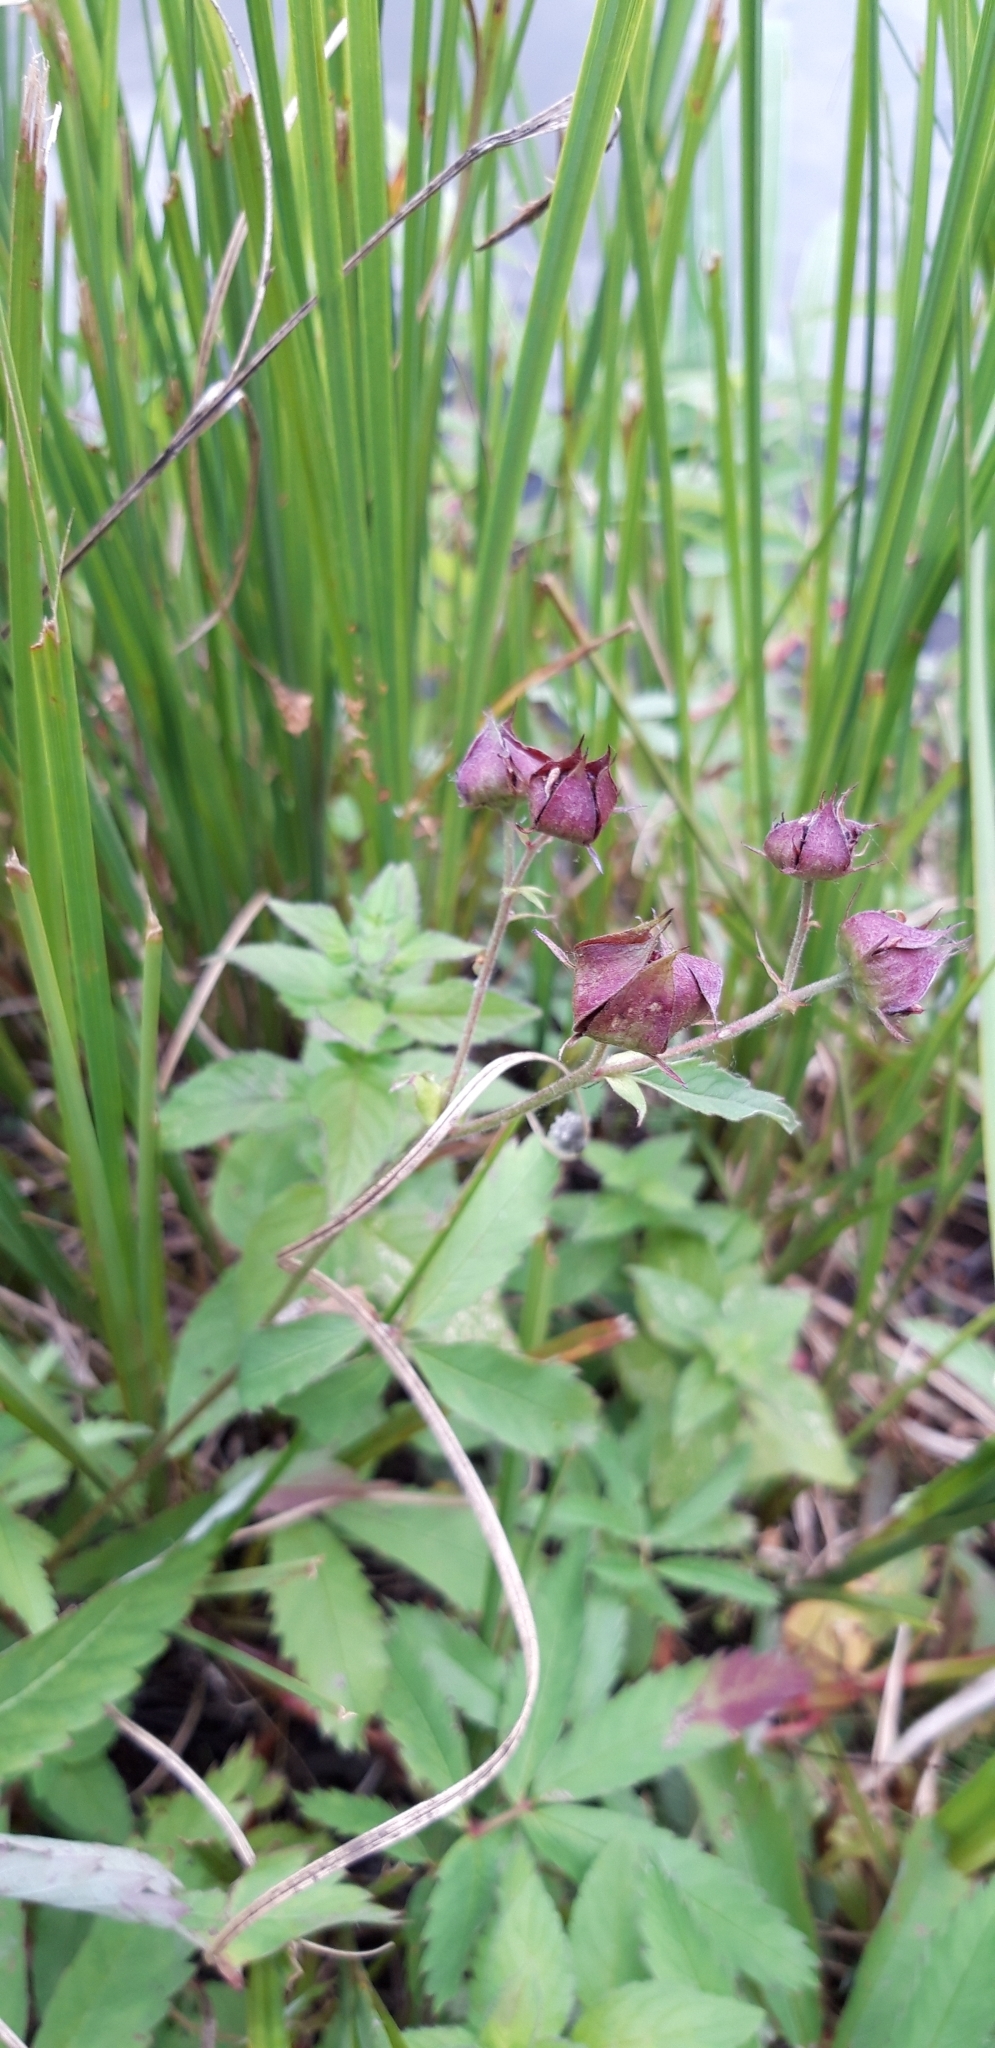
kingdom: Plantae
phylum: Tracheophyta
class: Magnoliopsida
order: Rosales
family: Rosaceae
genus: Comarum
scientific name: Comarum palustre
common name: Marsh cinquefoil
